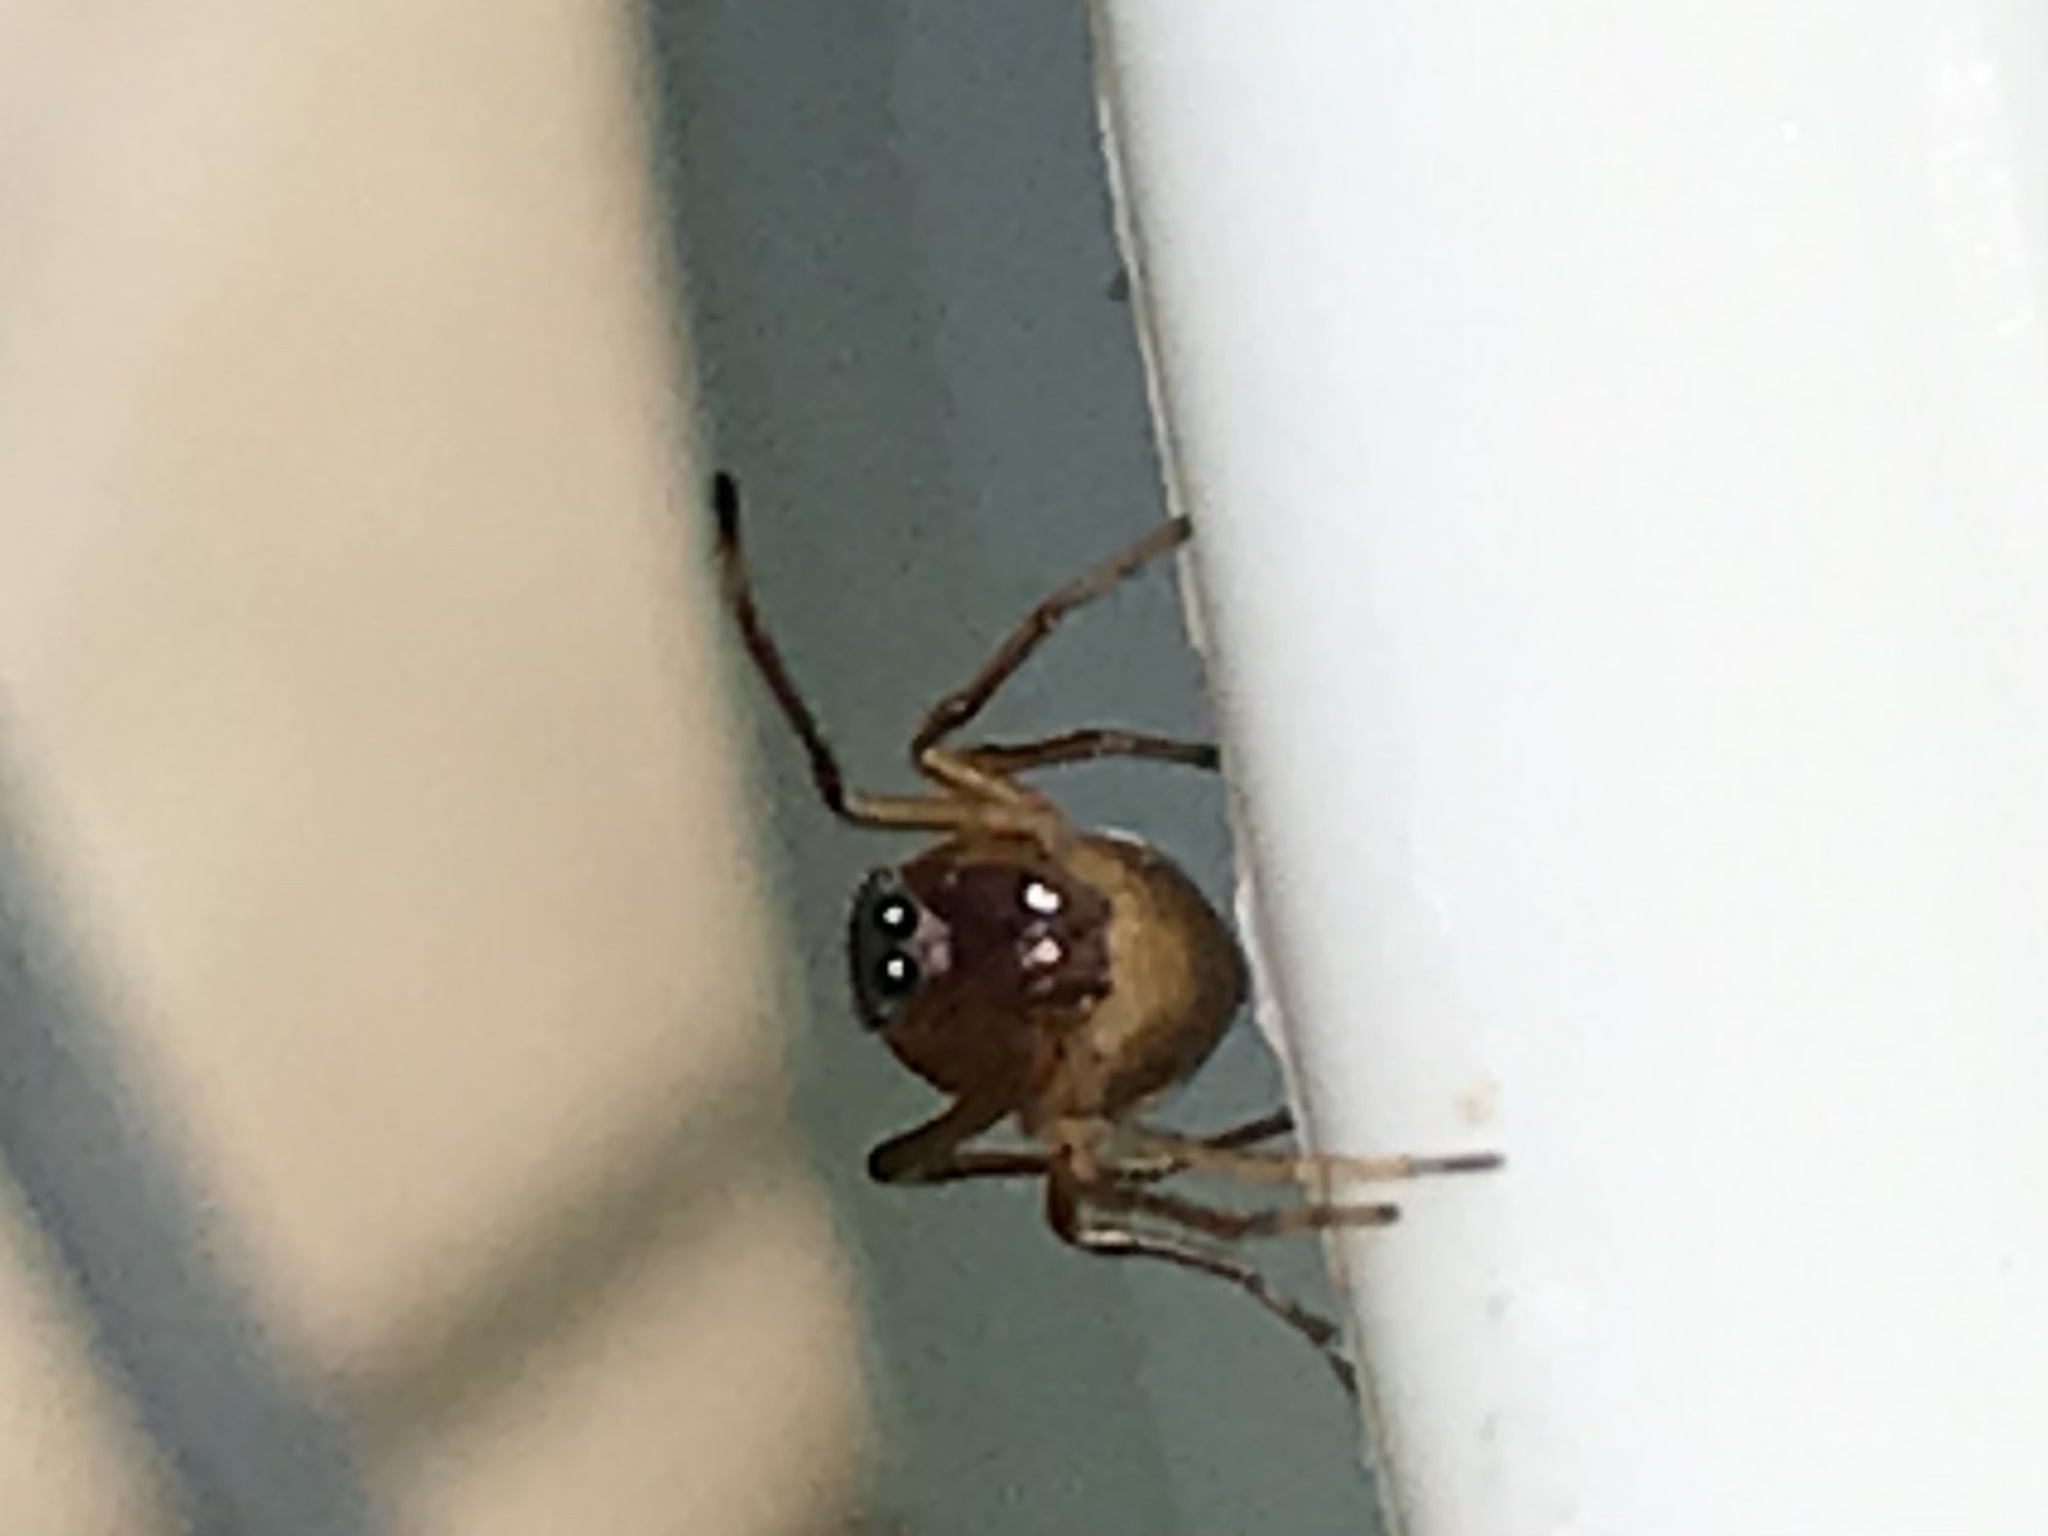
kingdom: Animalia
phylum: Arthropoda
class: Arachnida
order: Araneae
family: Salticidae
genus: Sarinda
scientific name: Sarinda hentzi
